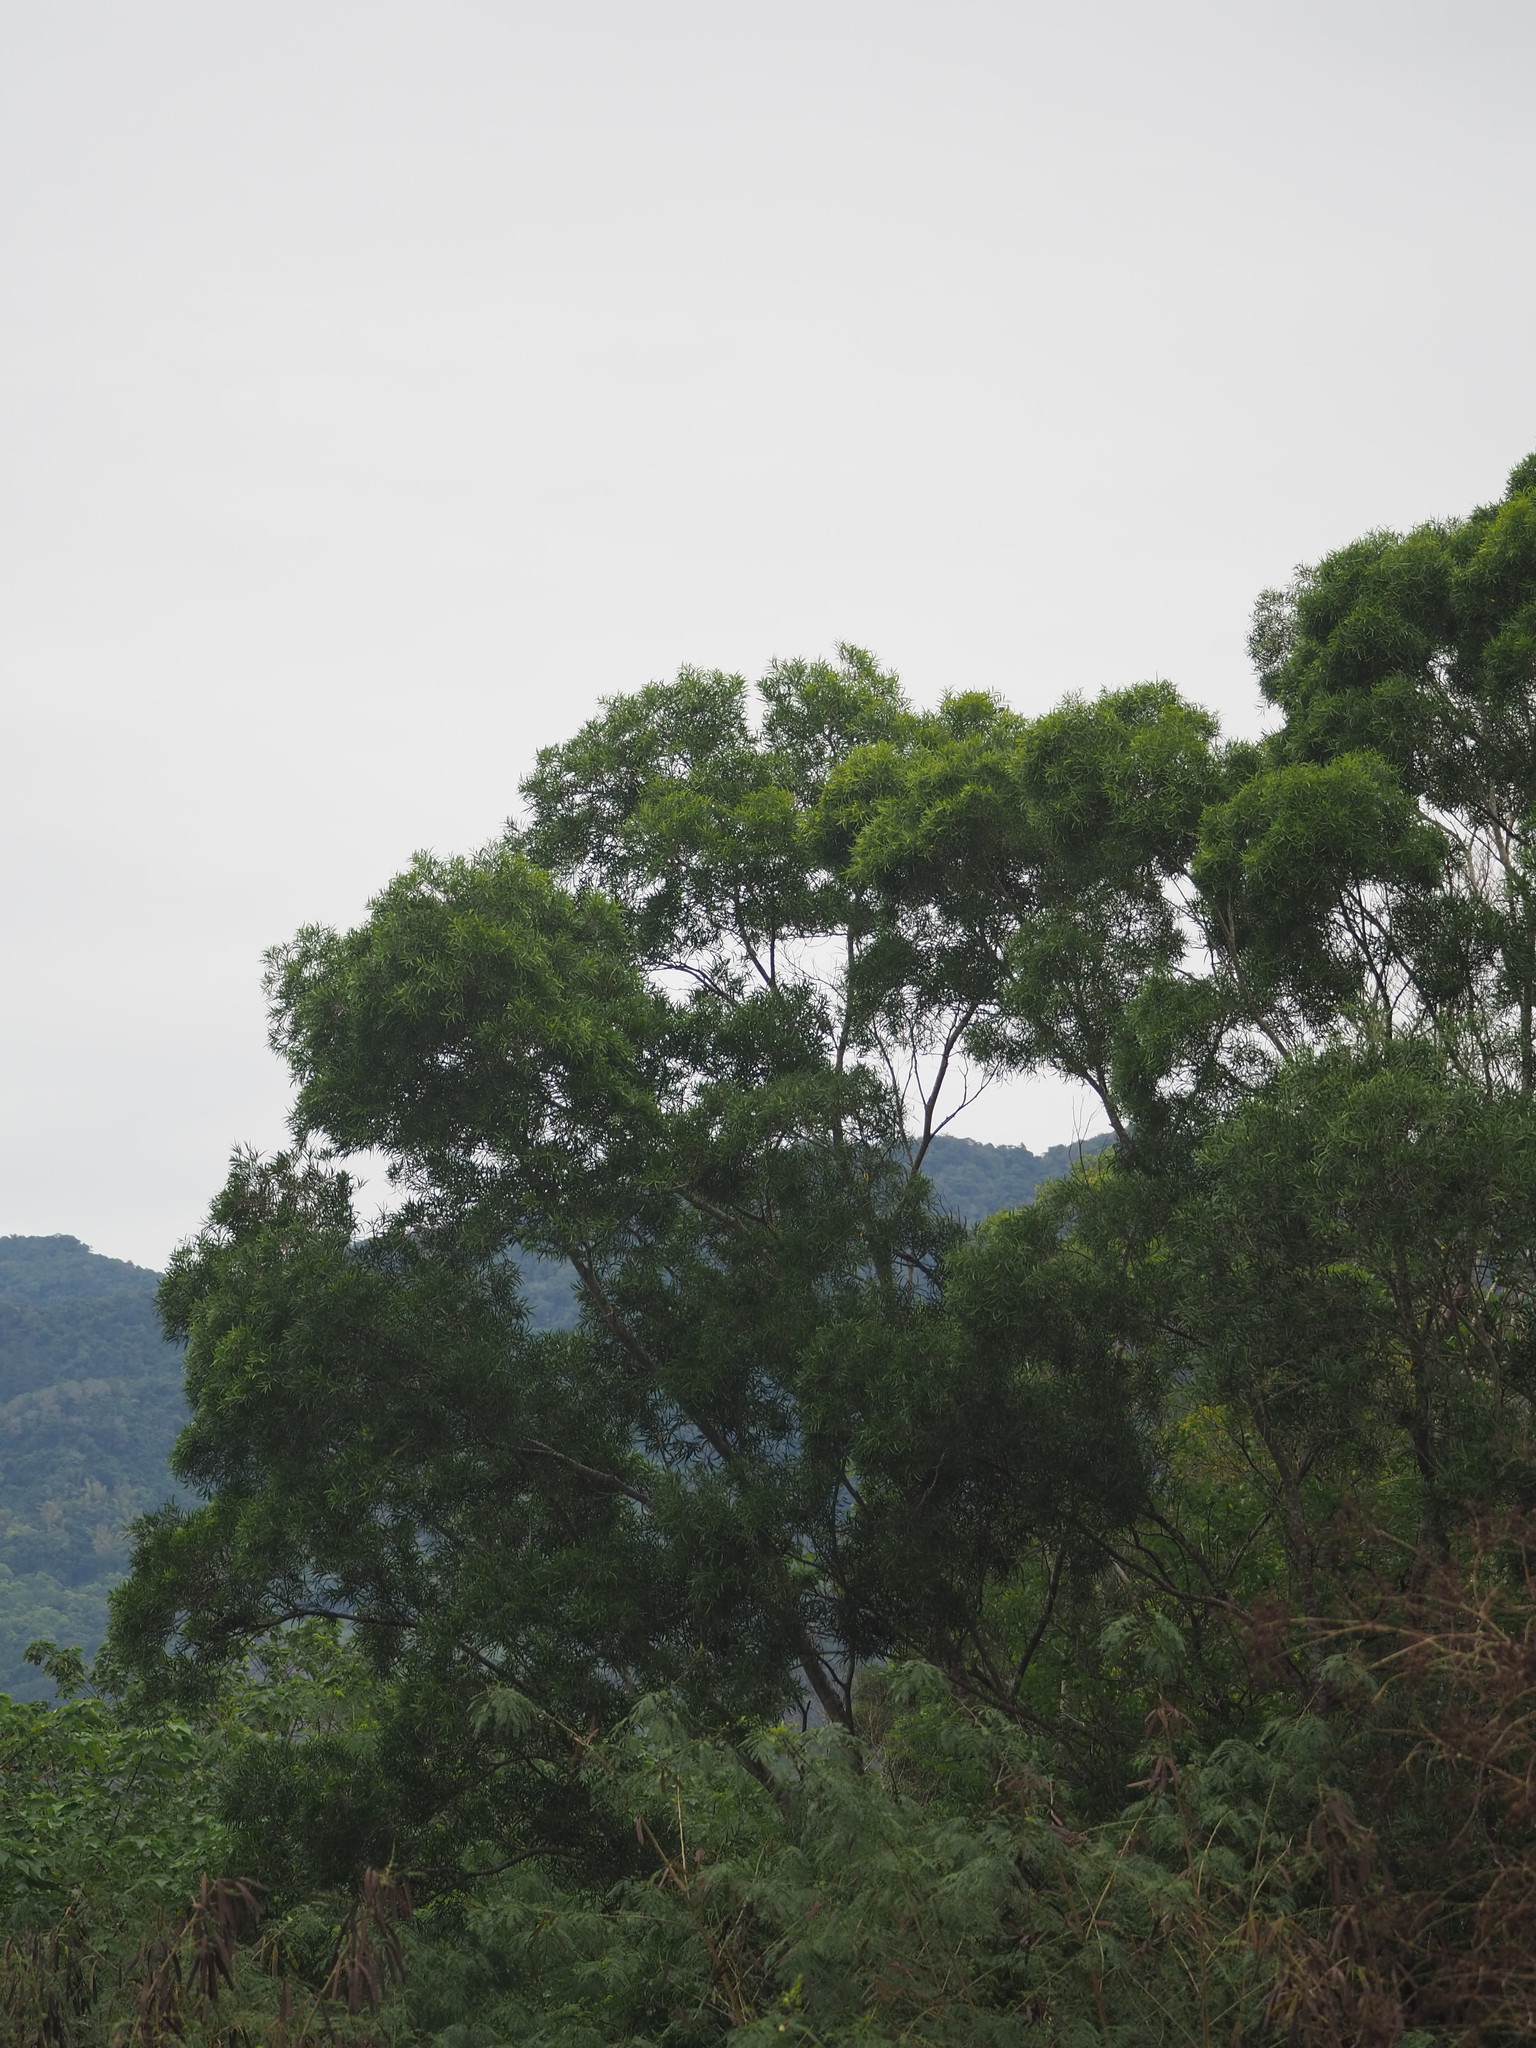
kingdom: Plantae
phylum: Tracheophyta
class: Magnoliopsida
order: Fabales
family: Fabaceae
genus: Acacia
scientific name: Acacia confusa
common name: Formosan koa
